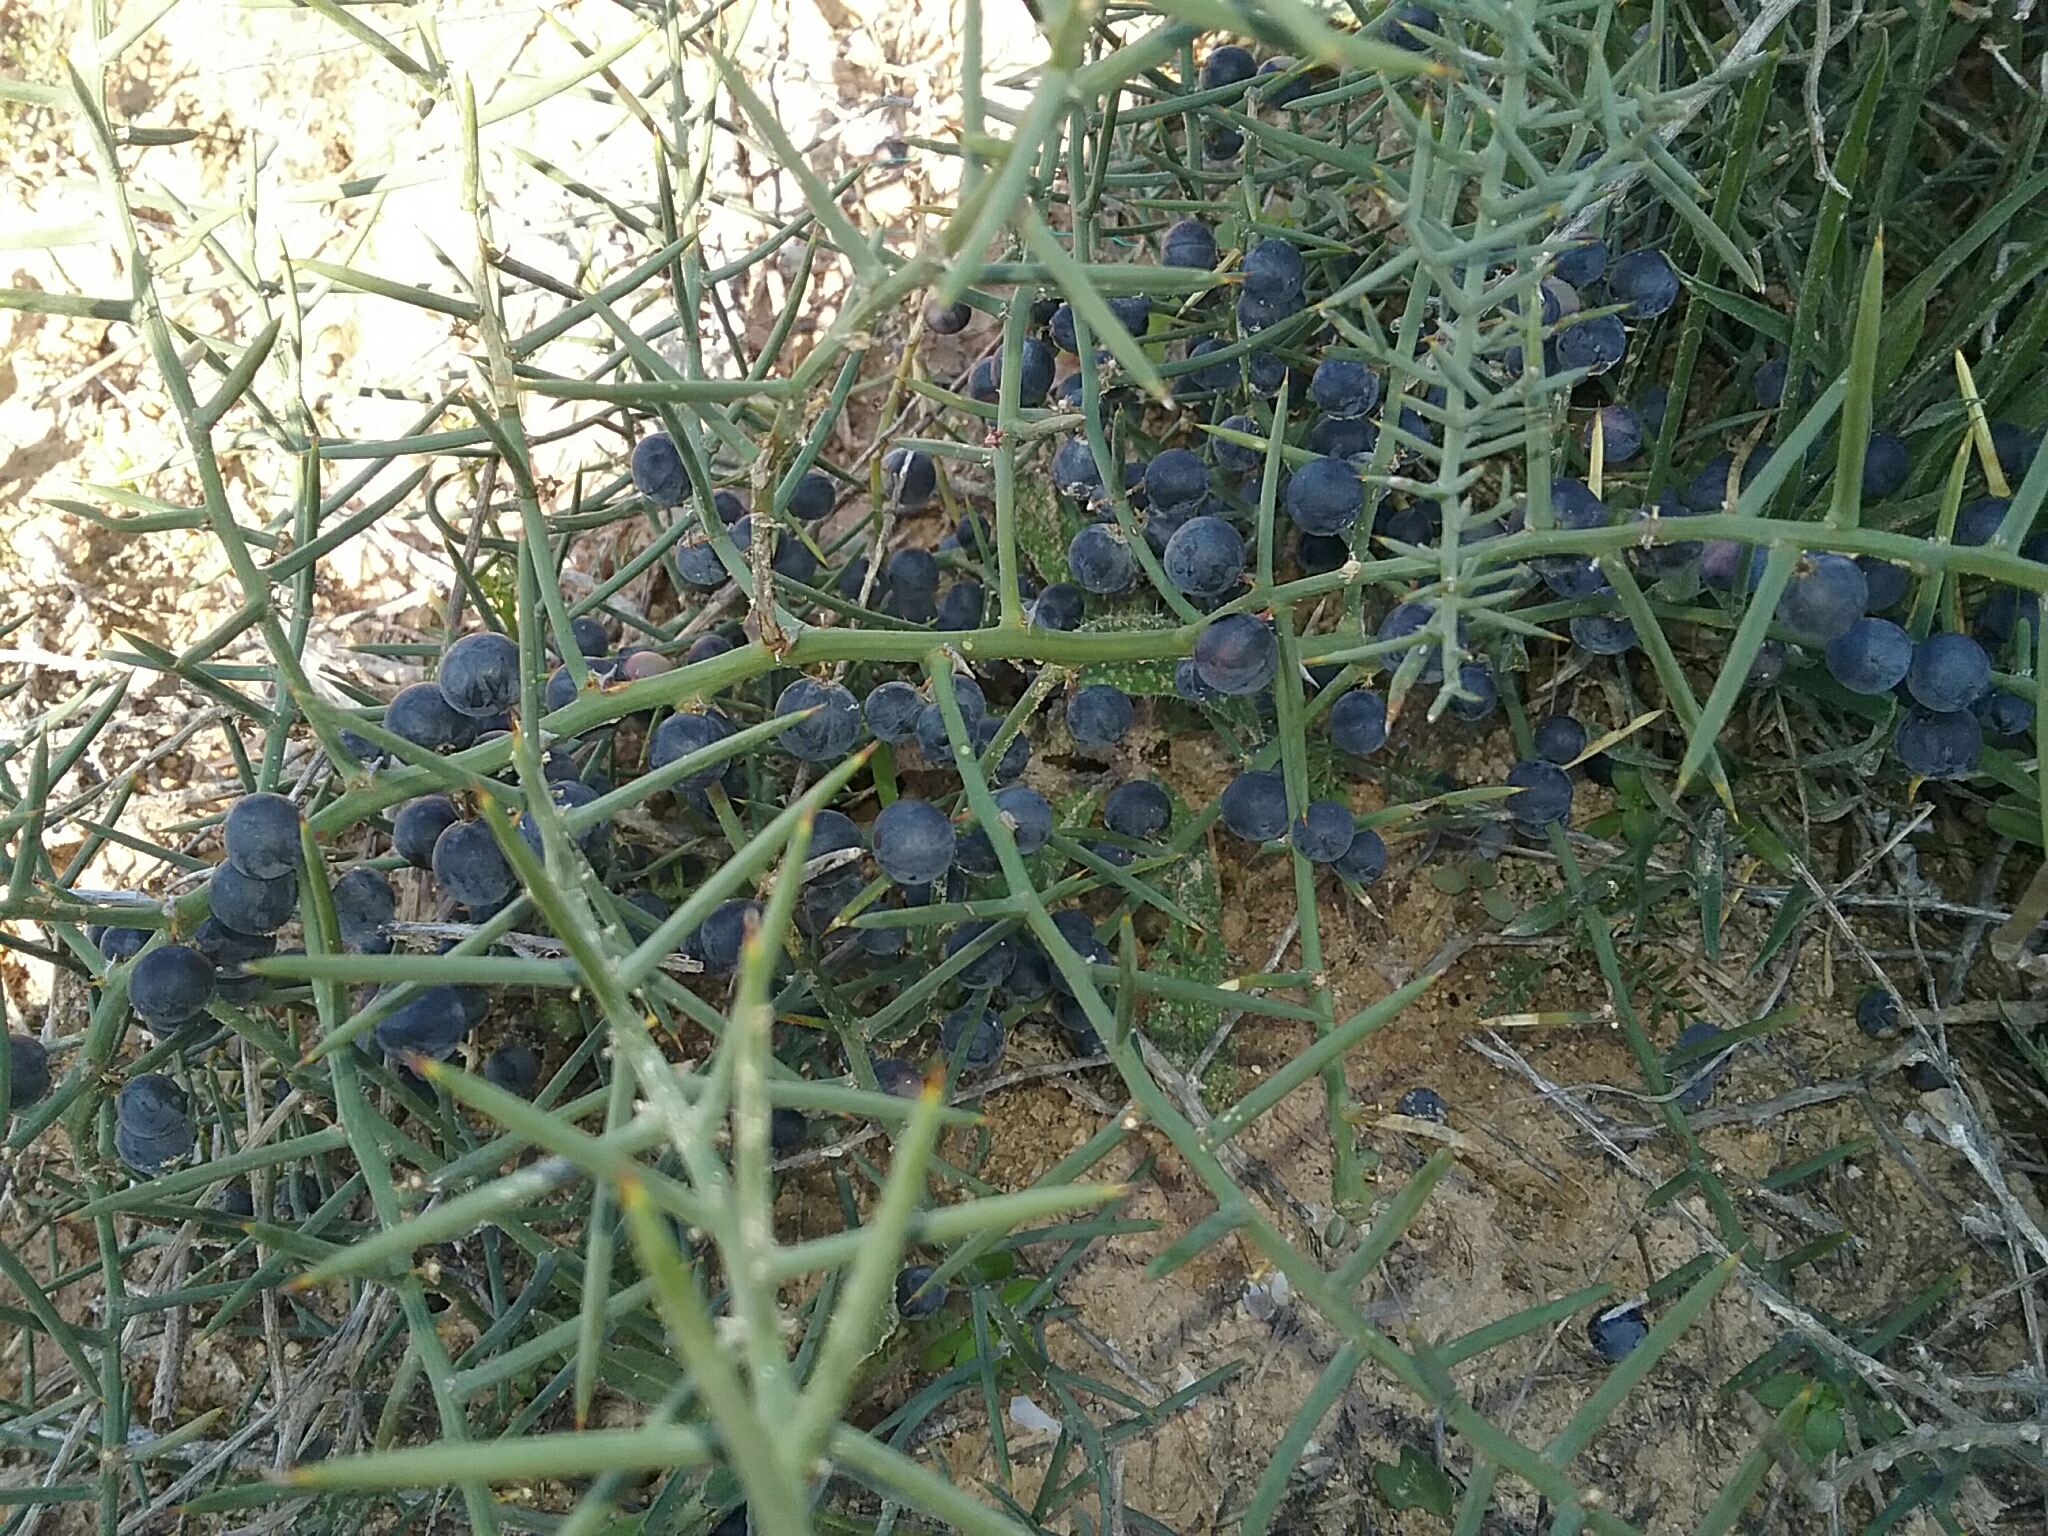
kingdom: Plantae
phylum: Tracheophyta
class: Liliopsida
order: Asparagales
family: Asparagaceae
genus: Asparagus
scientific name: Asparagus horridus
